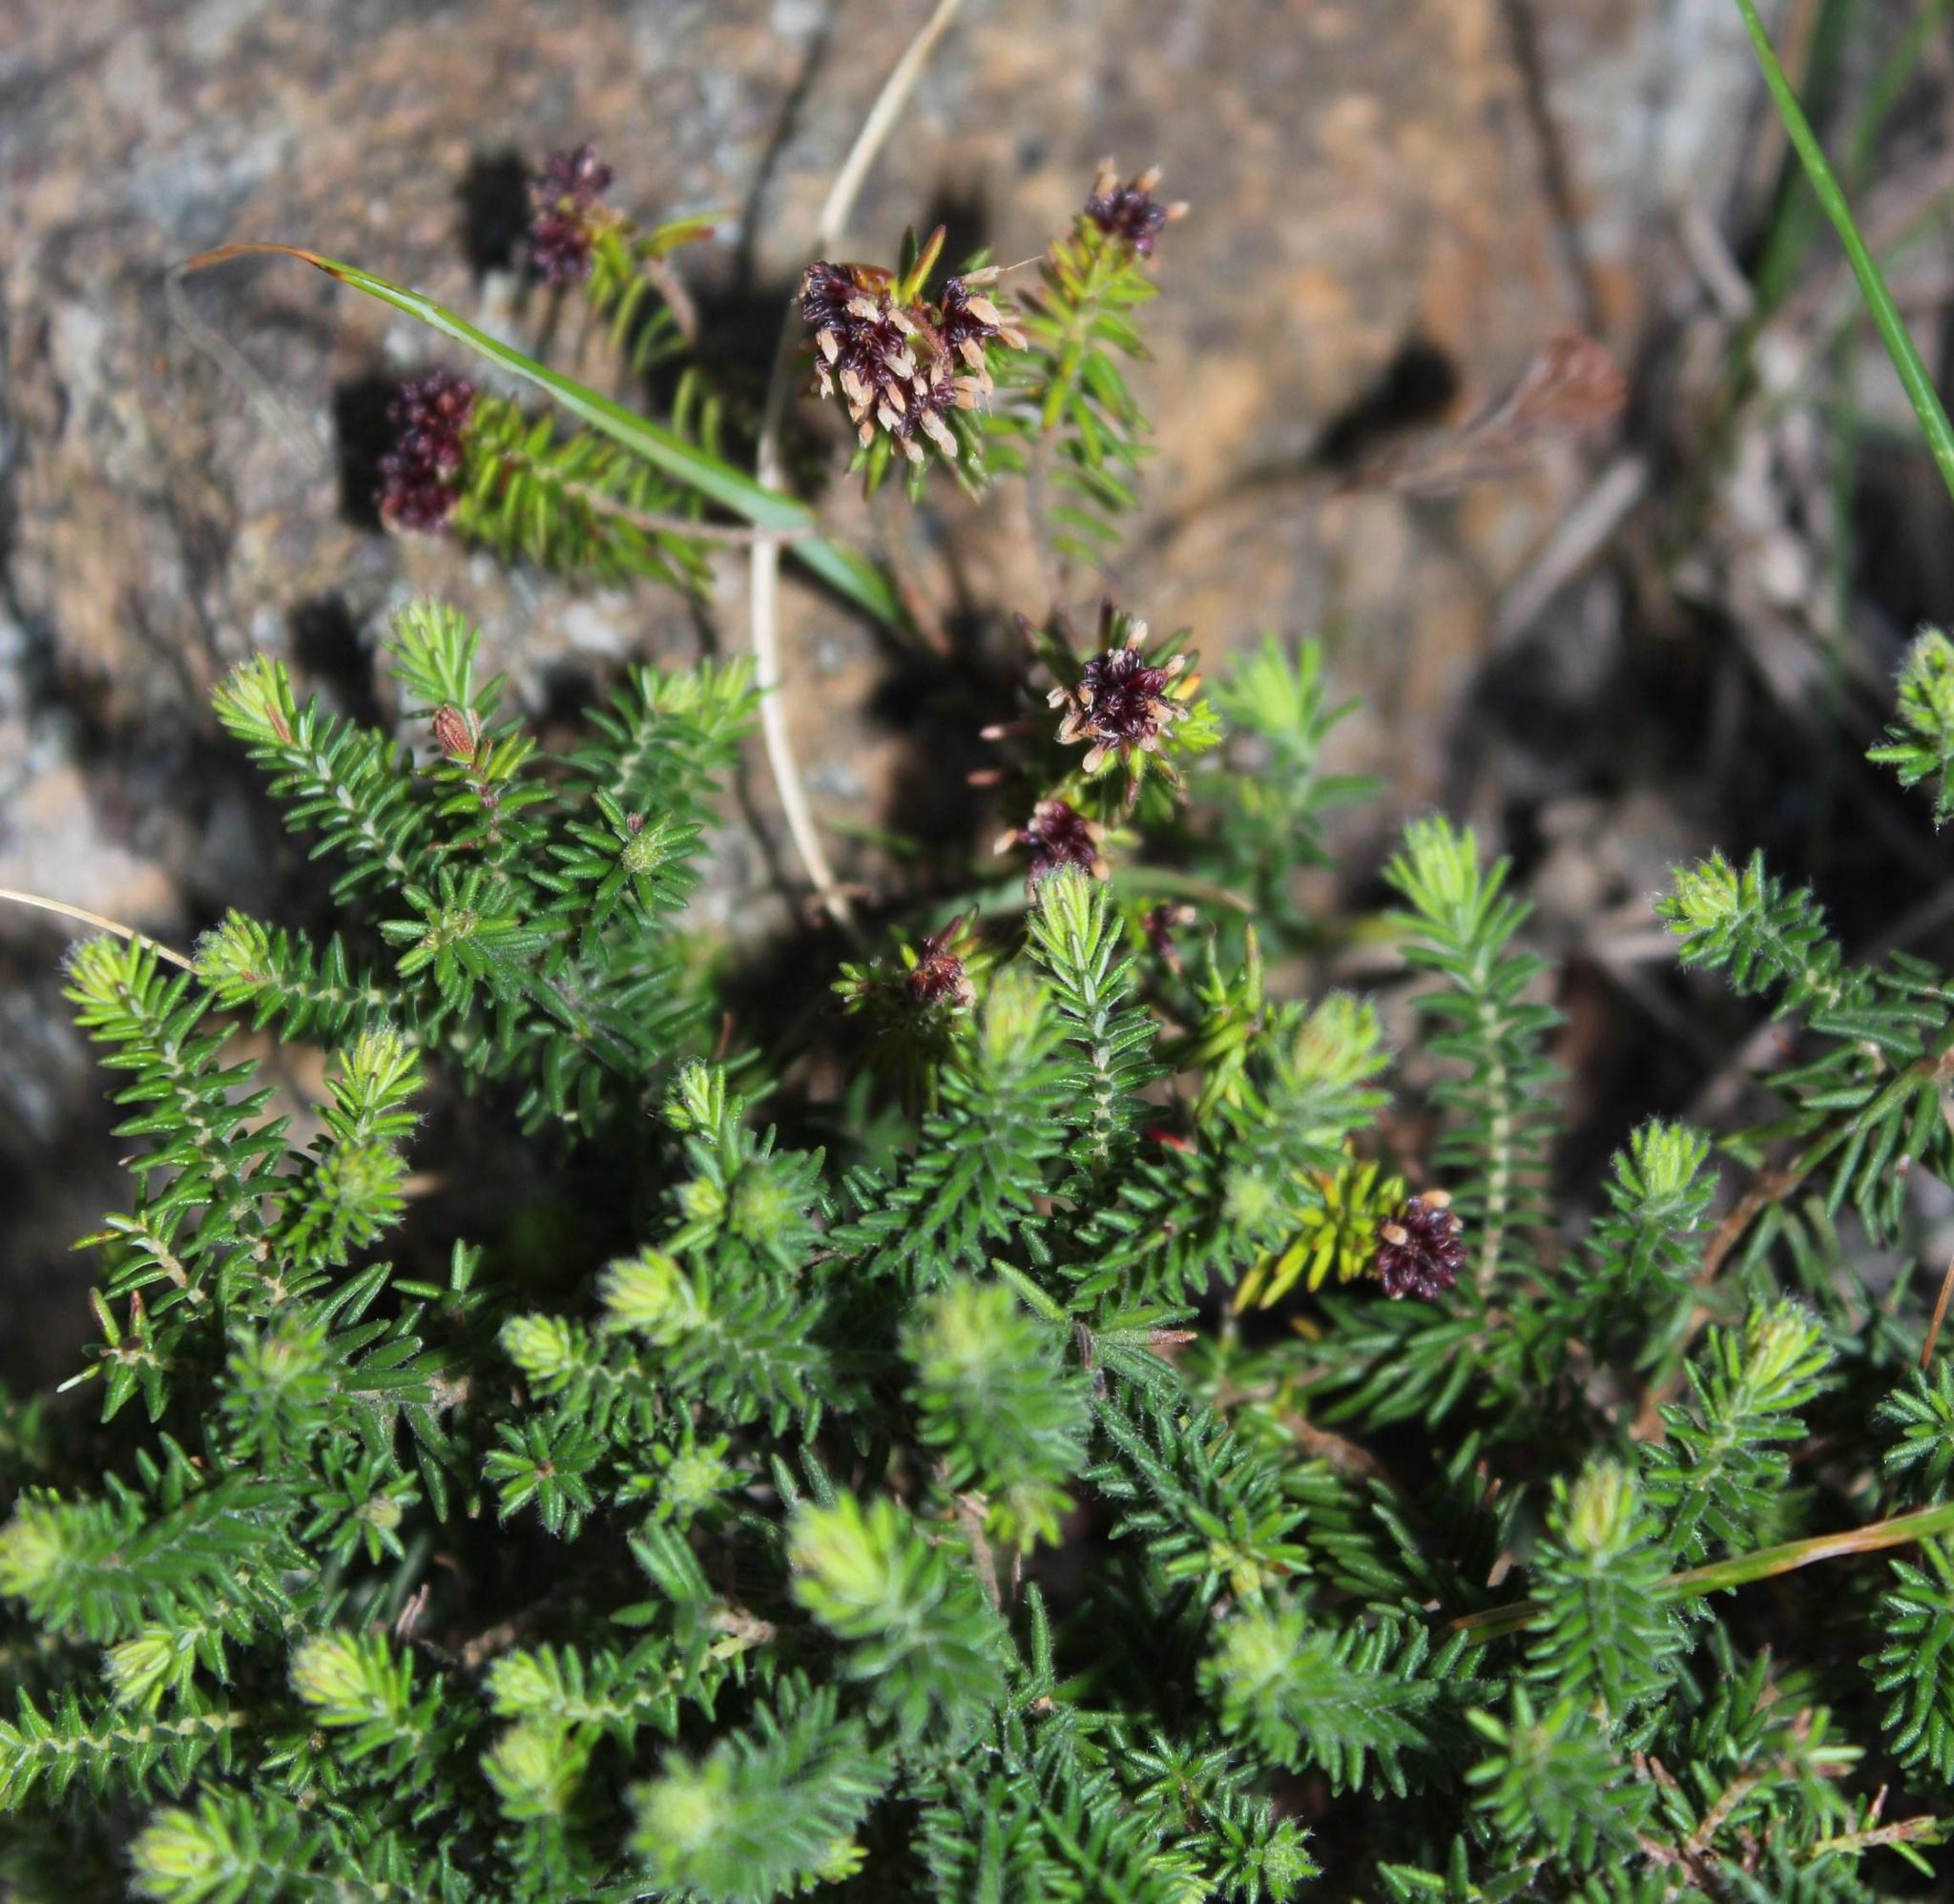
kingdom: Plantae
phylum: Tracheophyta
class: Magnoliopsida
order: Ericales
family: Ericaceae
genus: Erica
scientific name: Erica depressa
